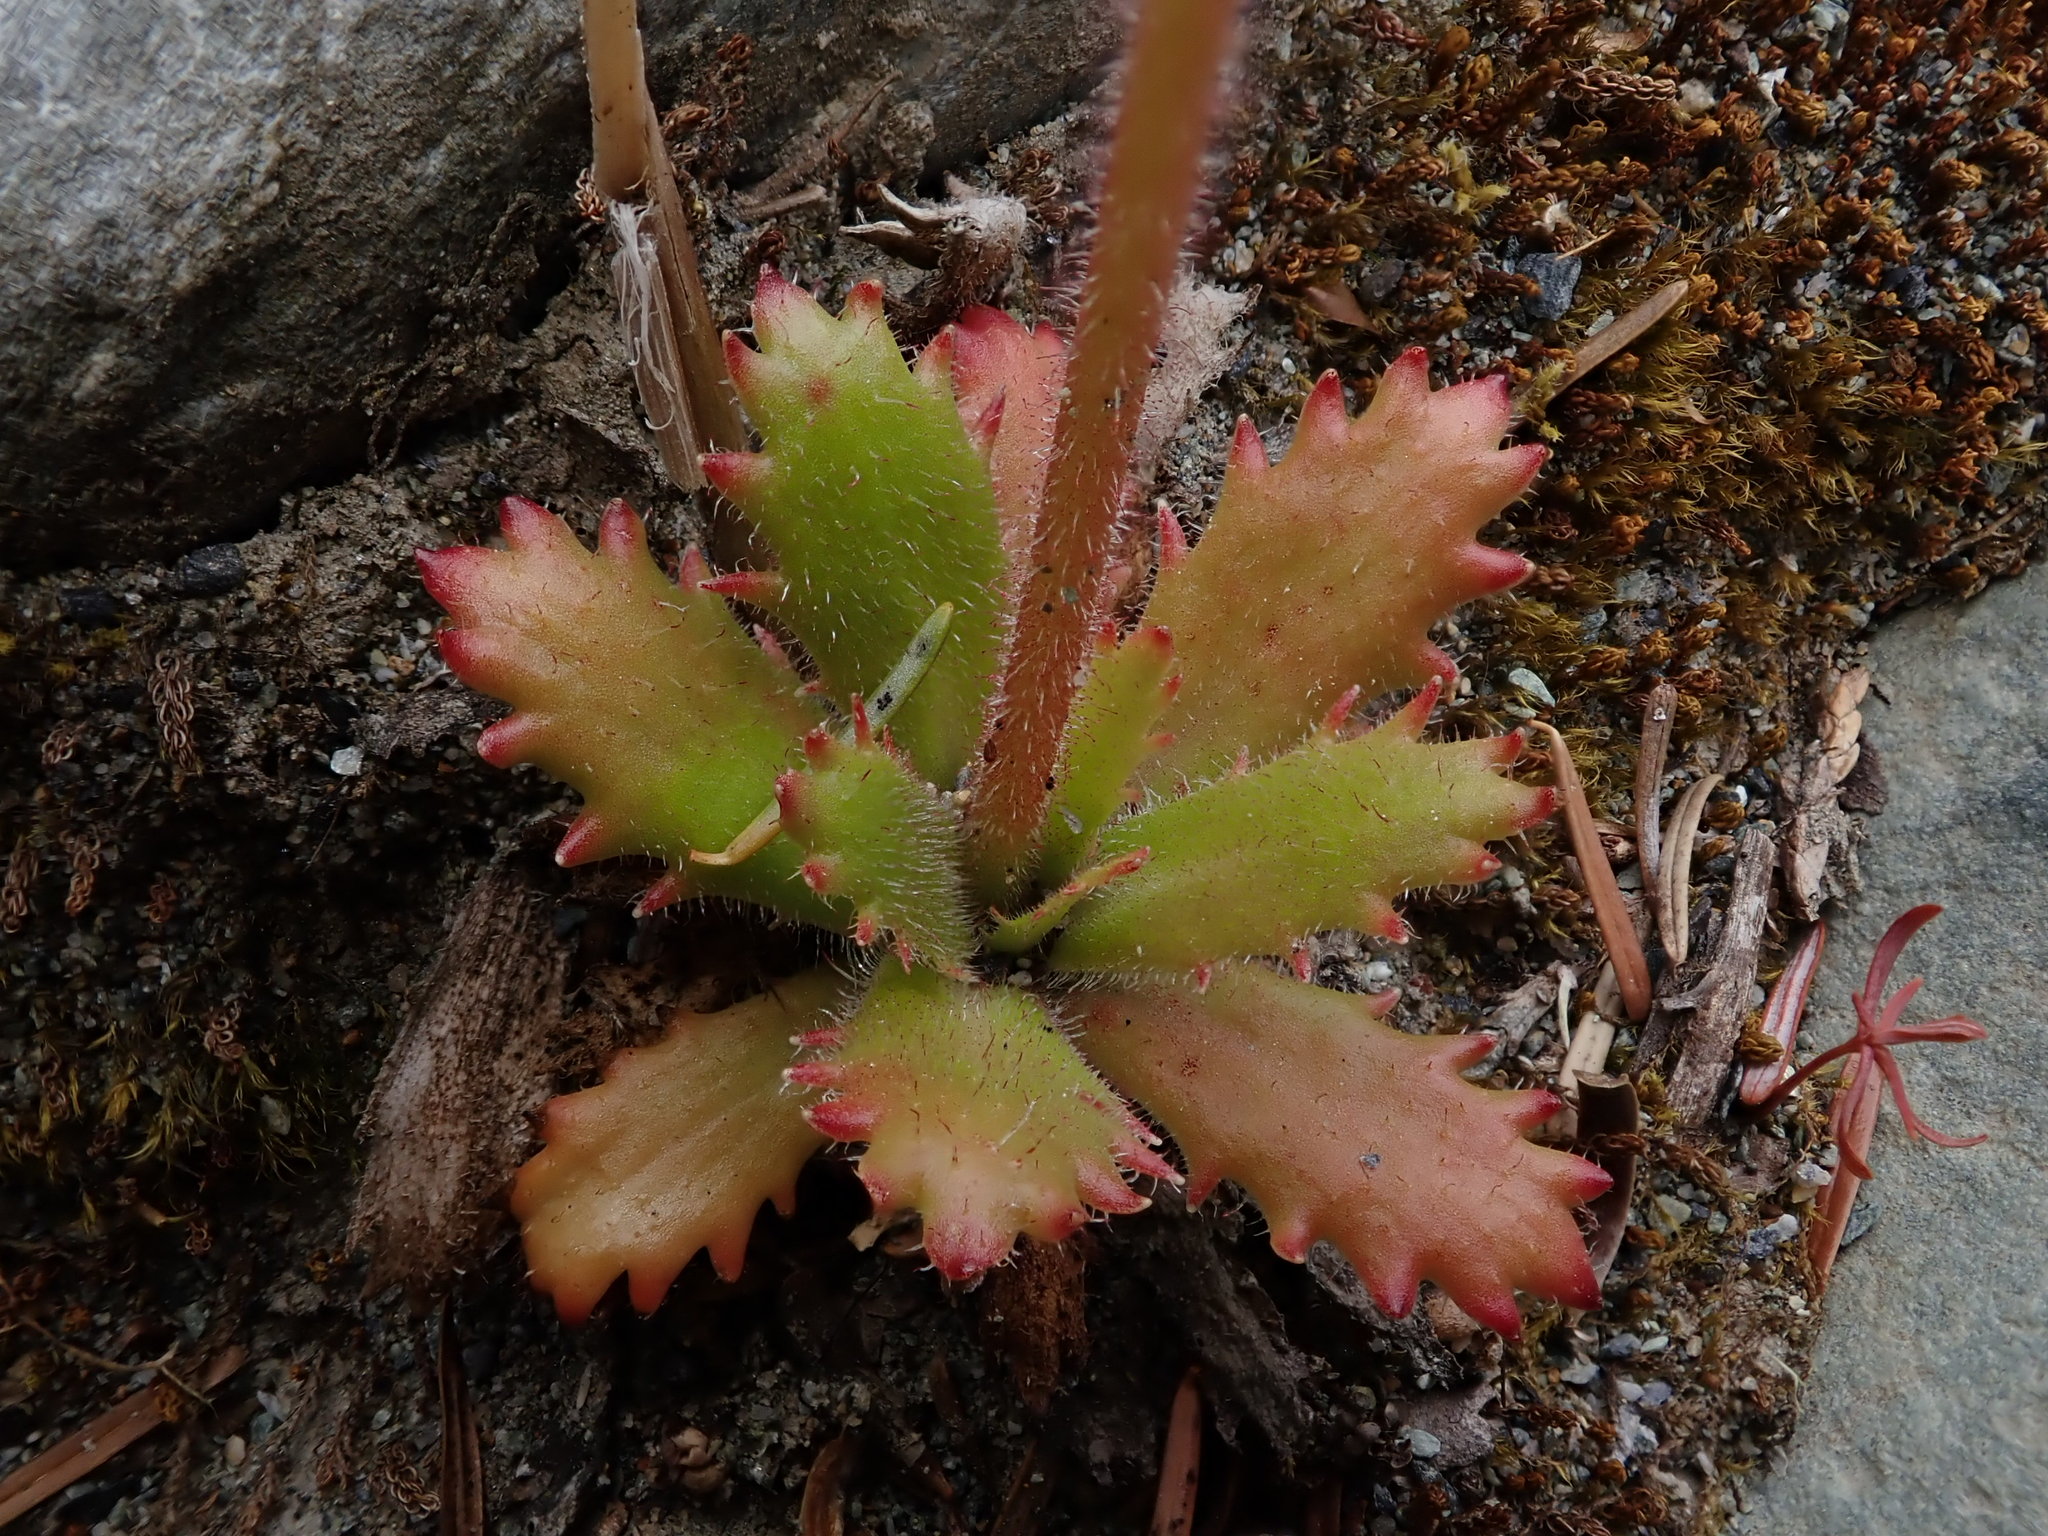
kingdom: Plantae
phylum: Tracheophyta
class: Magnoliopsida
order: Saxifragales
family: Saxifragaceae
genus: Micranthes
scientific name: Micranthes ferruginea
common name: Rusty saxifrage
